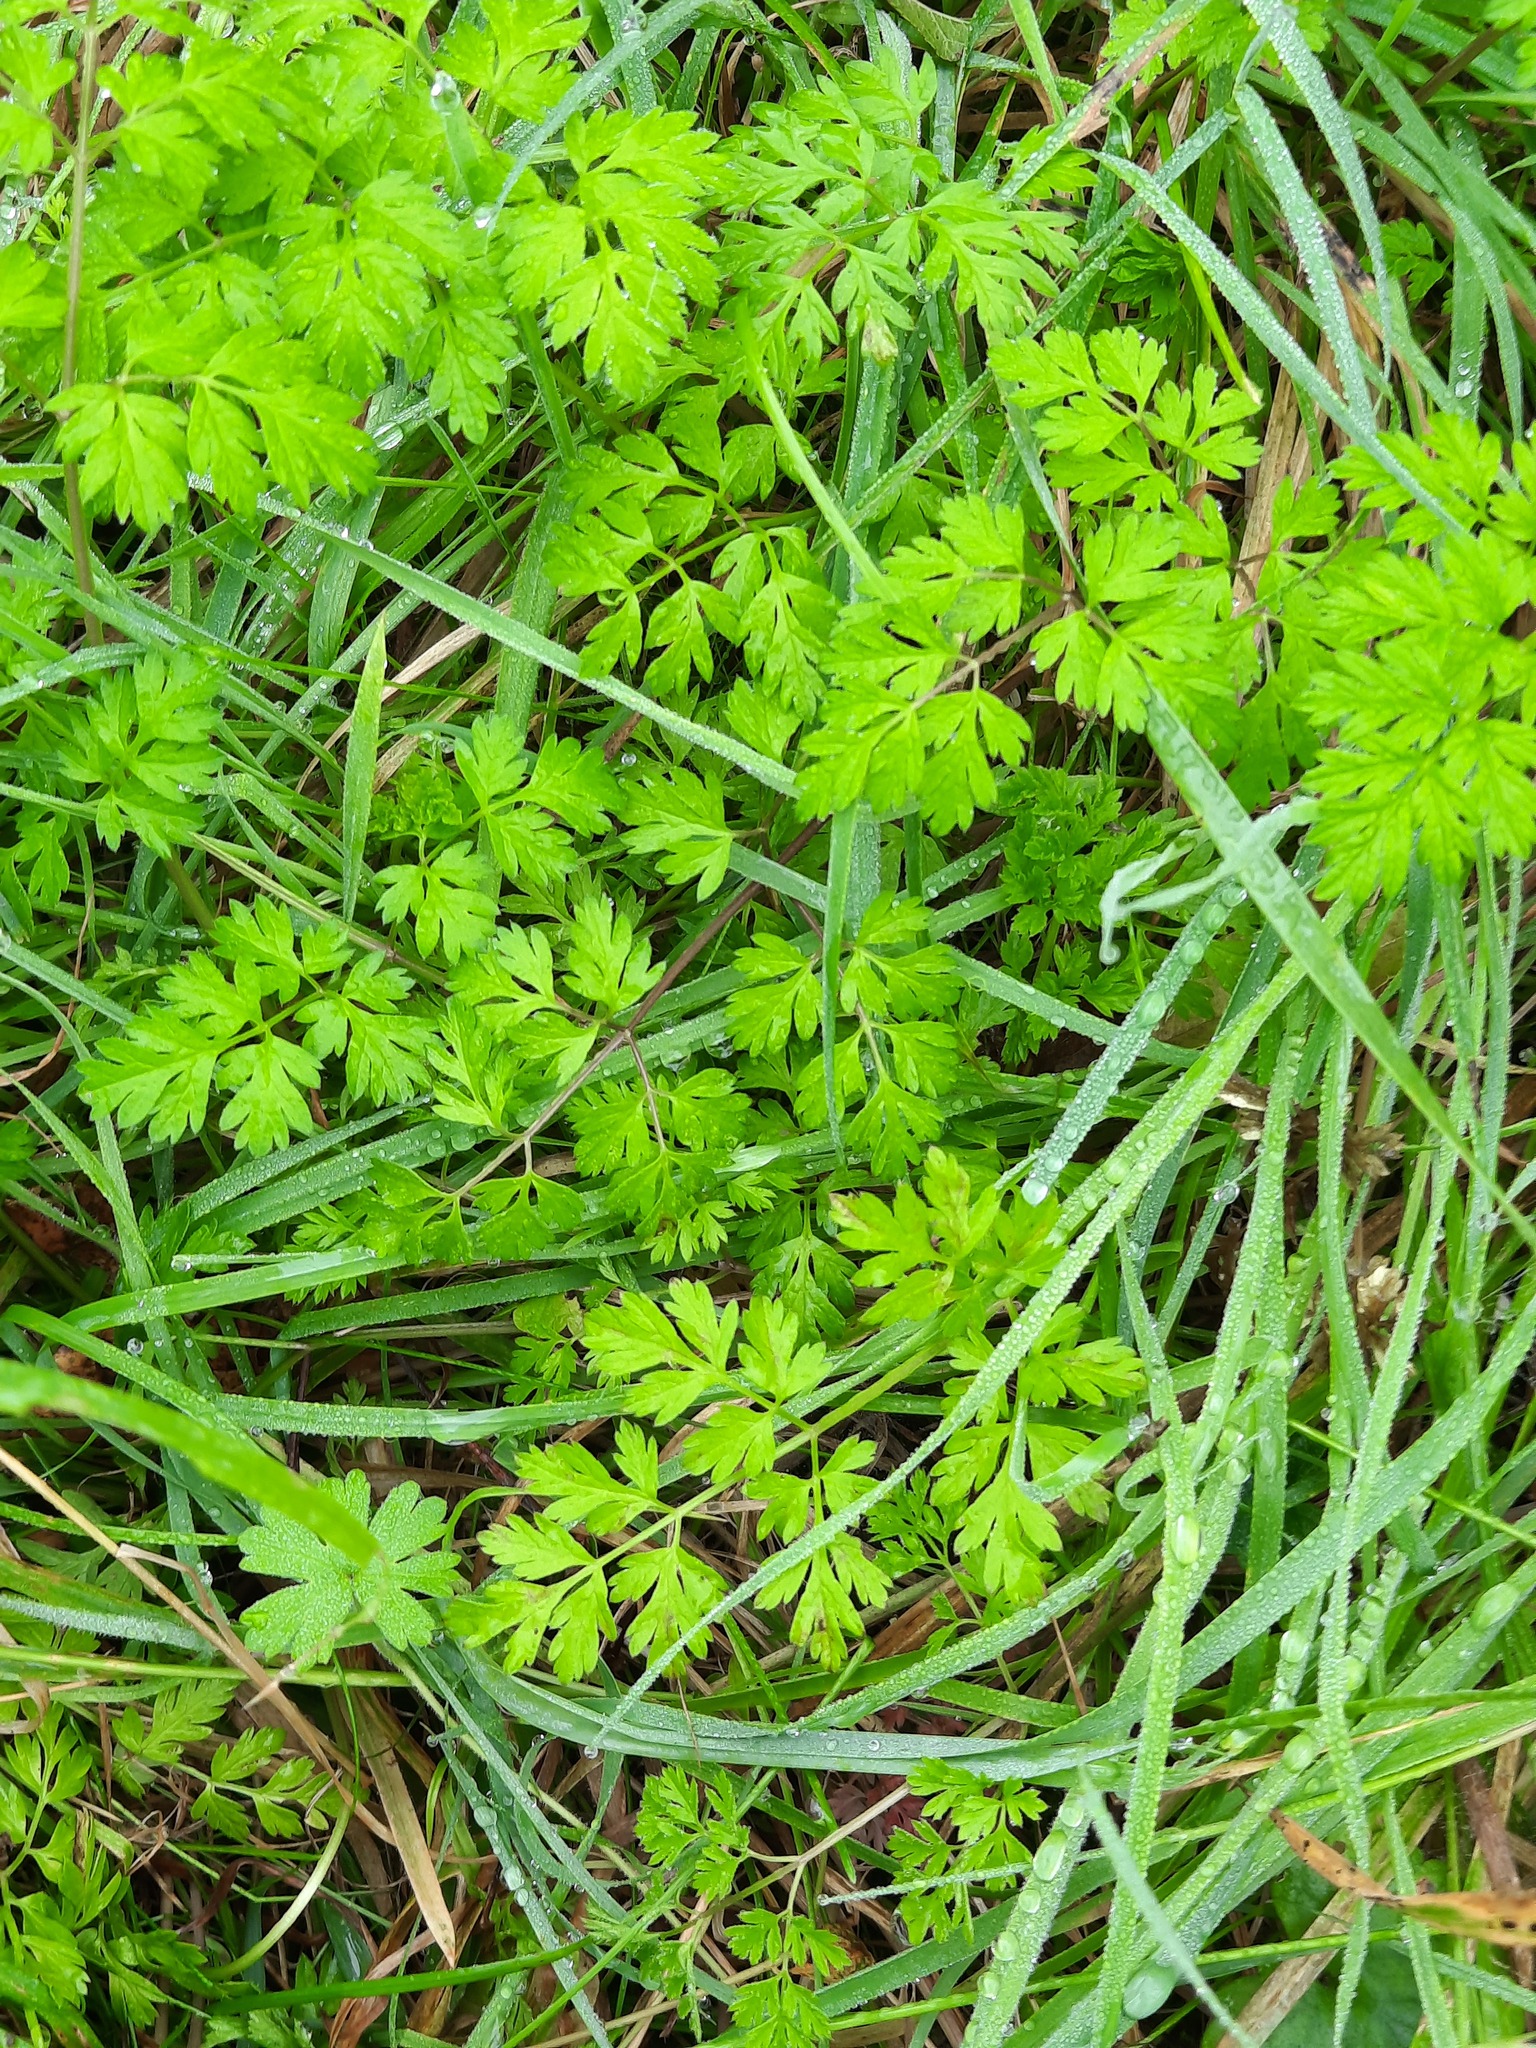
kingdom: Plantae
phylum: Tracheophyta
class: Magnoliopsida
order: Apiales
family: Apiaceae
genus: Anthriscus
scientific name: Anthriscus sylvestris
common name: Cow parsley
